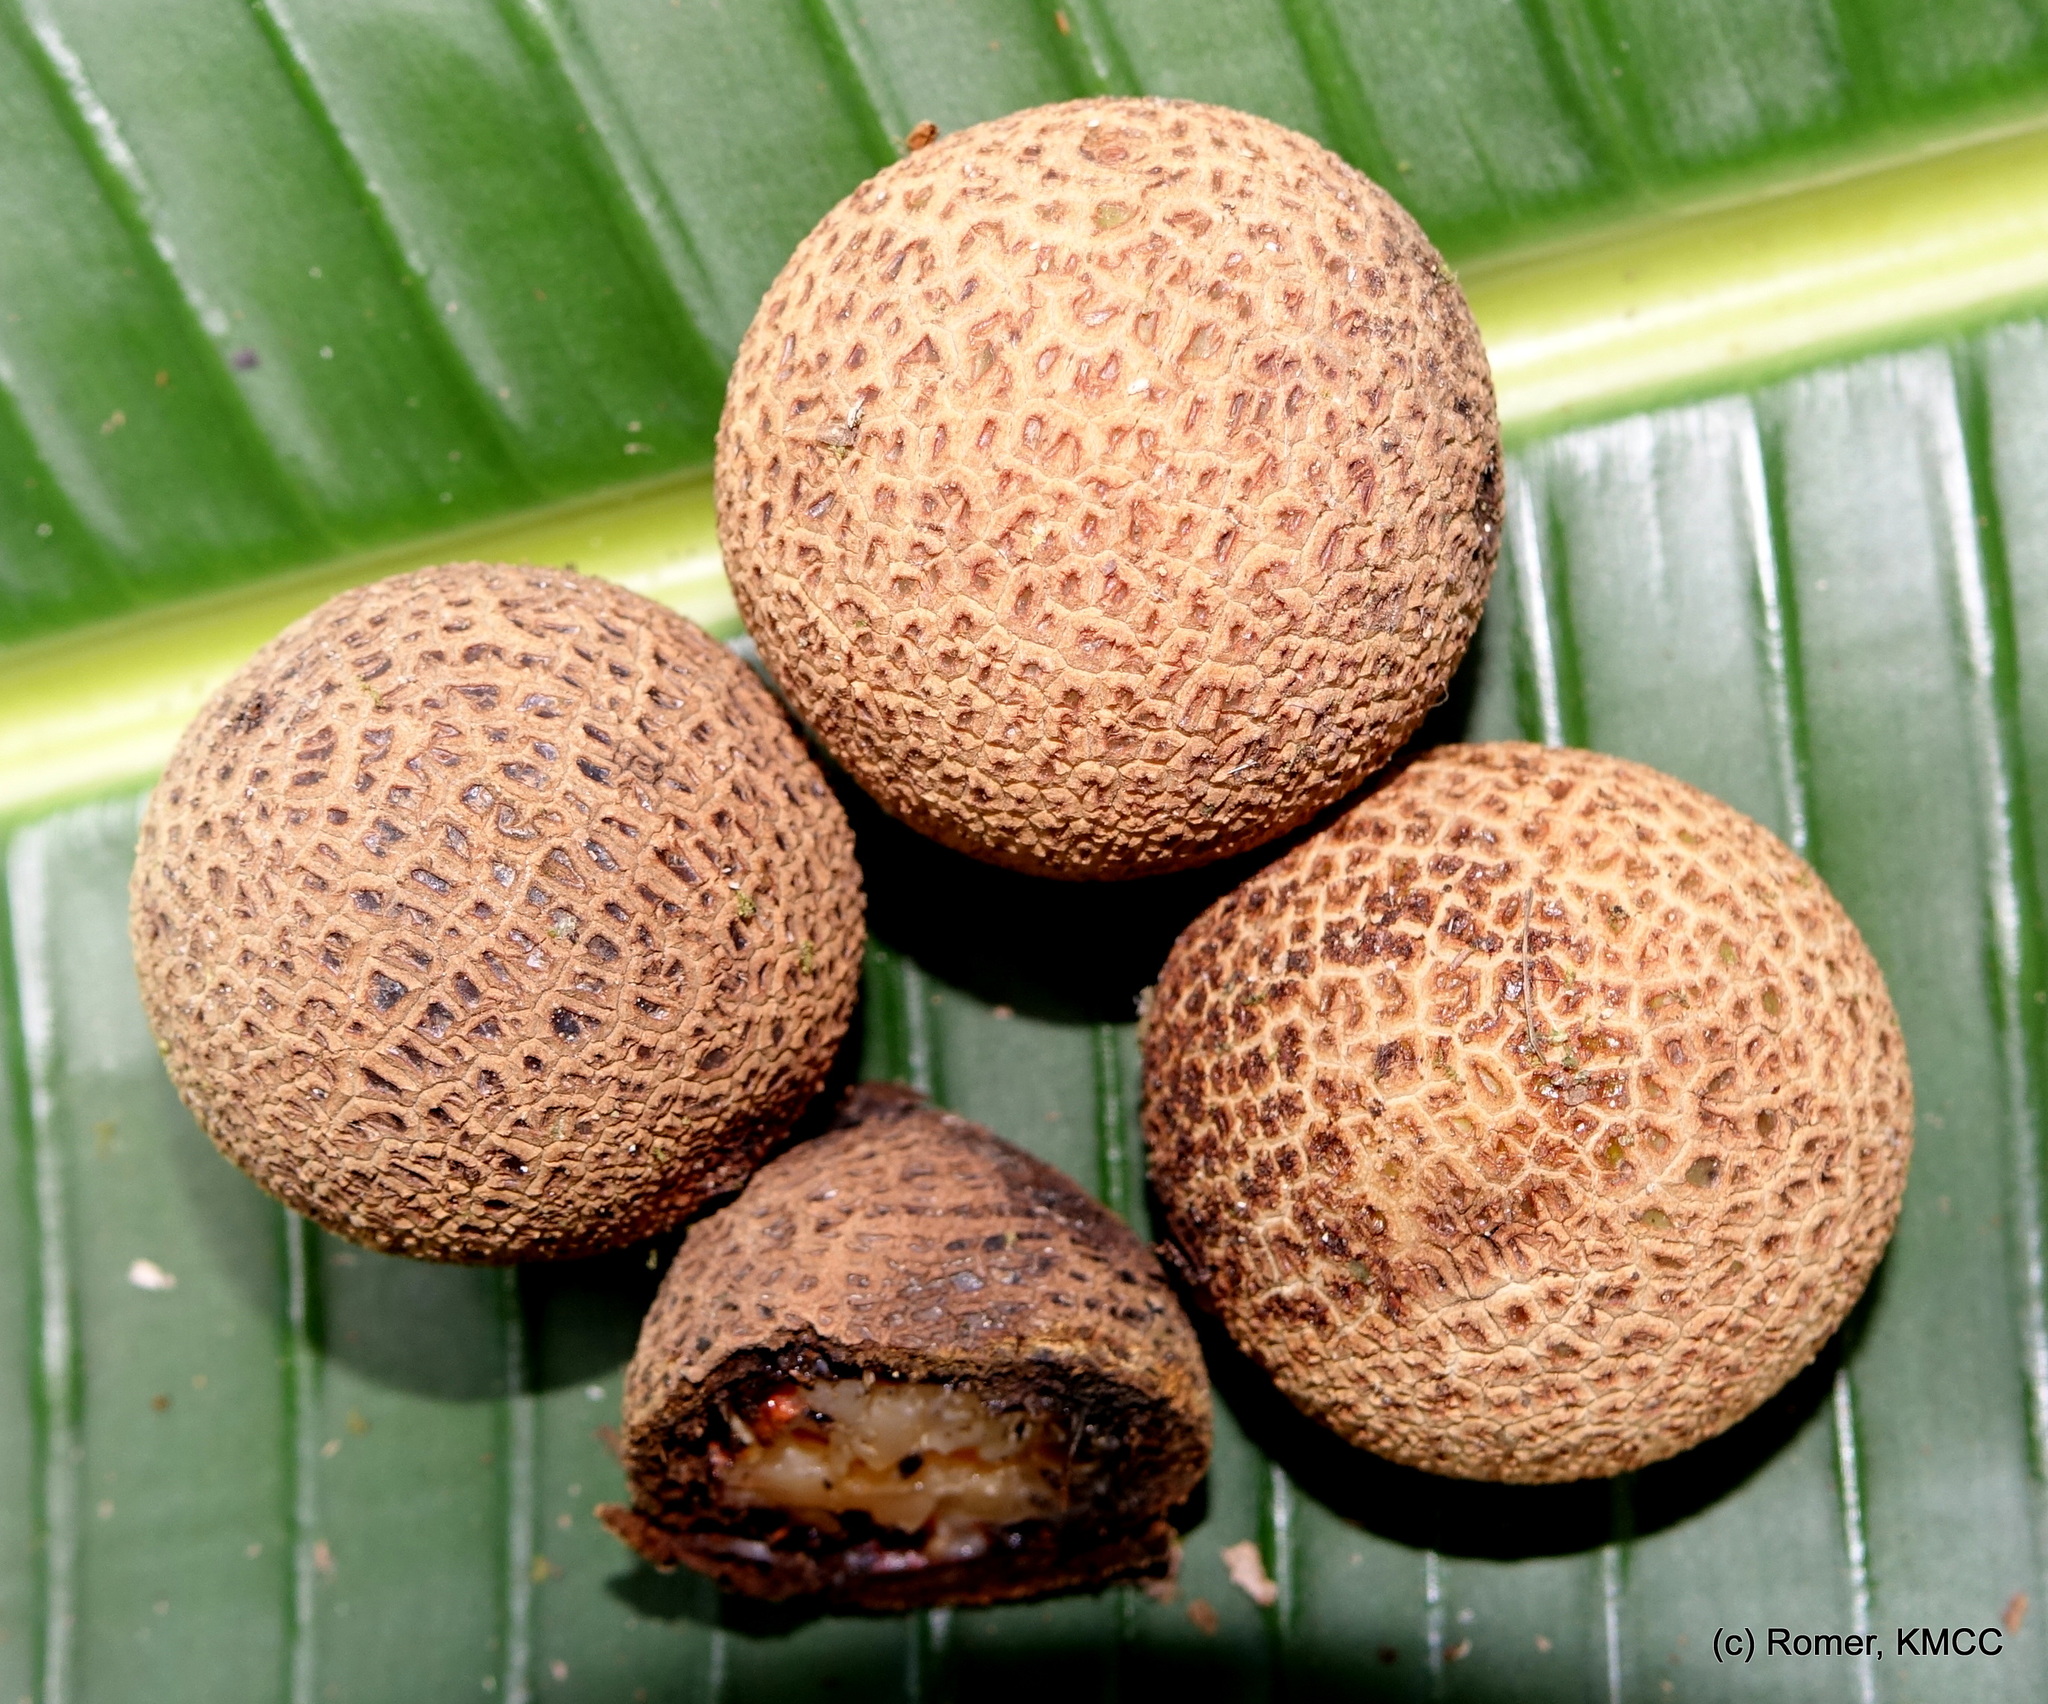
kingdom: Plantae
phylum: Tracheophyta
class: Liliopsida
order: Arecales
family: Arecaceae
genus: Lemurophoenix
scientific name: Lemurophoenix halleuxii
